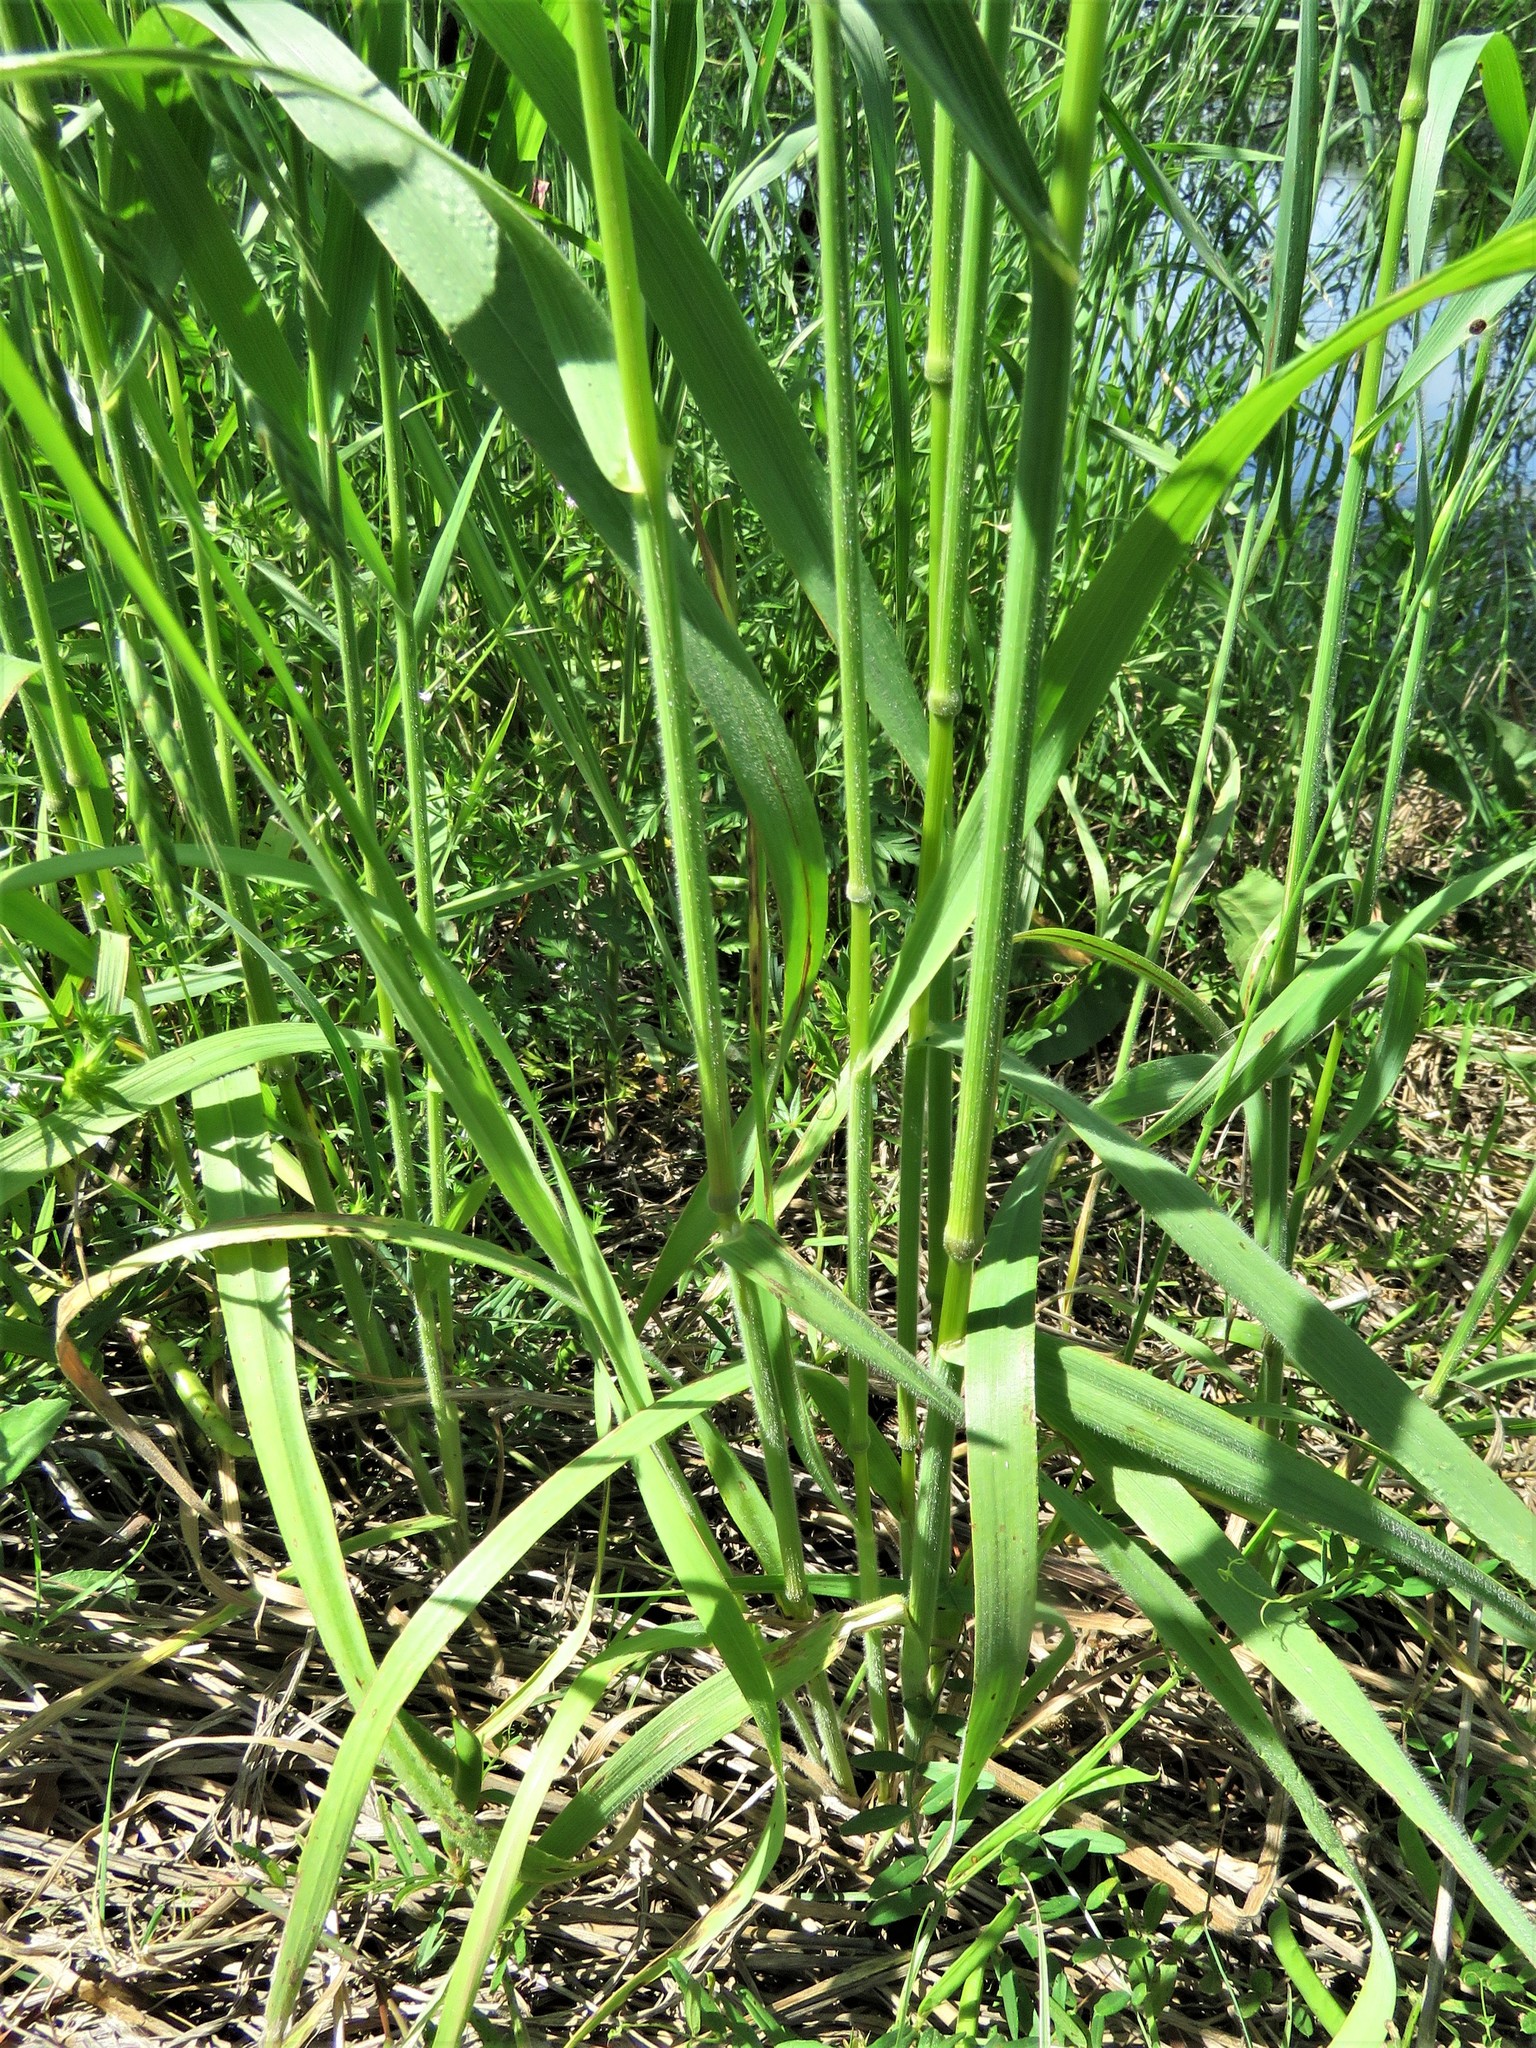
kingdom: Plantae
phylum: Tracheophyta
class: Liliopsida
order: Poales
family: Poaceae
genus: Bromus
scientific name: Bromus japonicus
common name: Japanese brome
